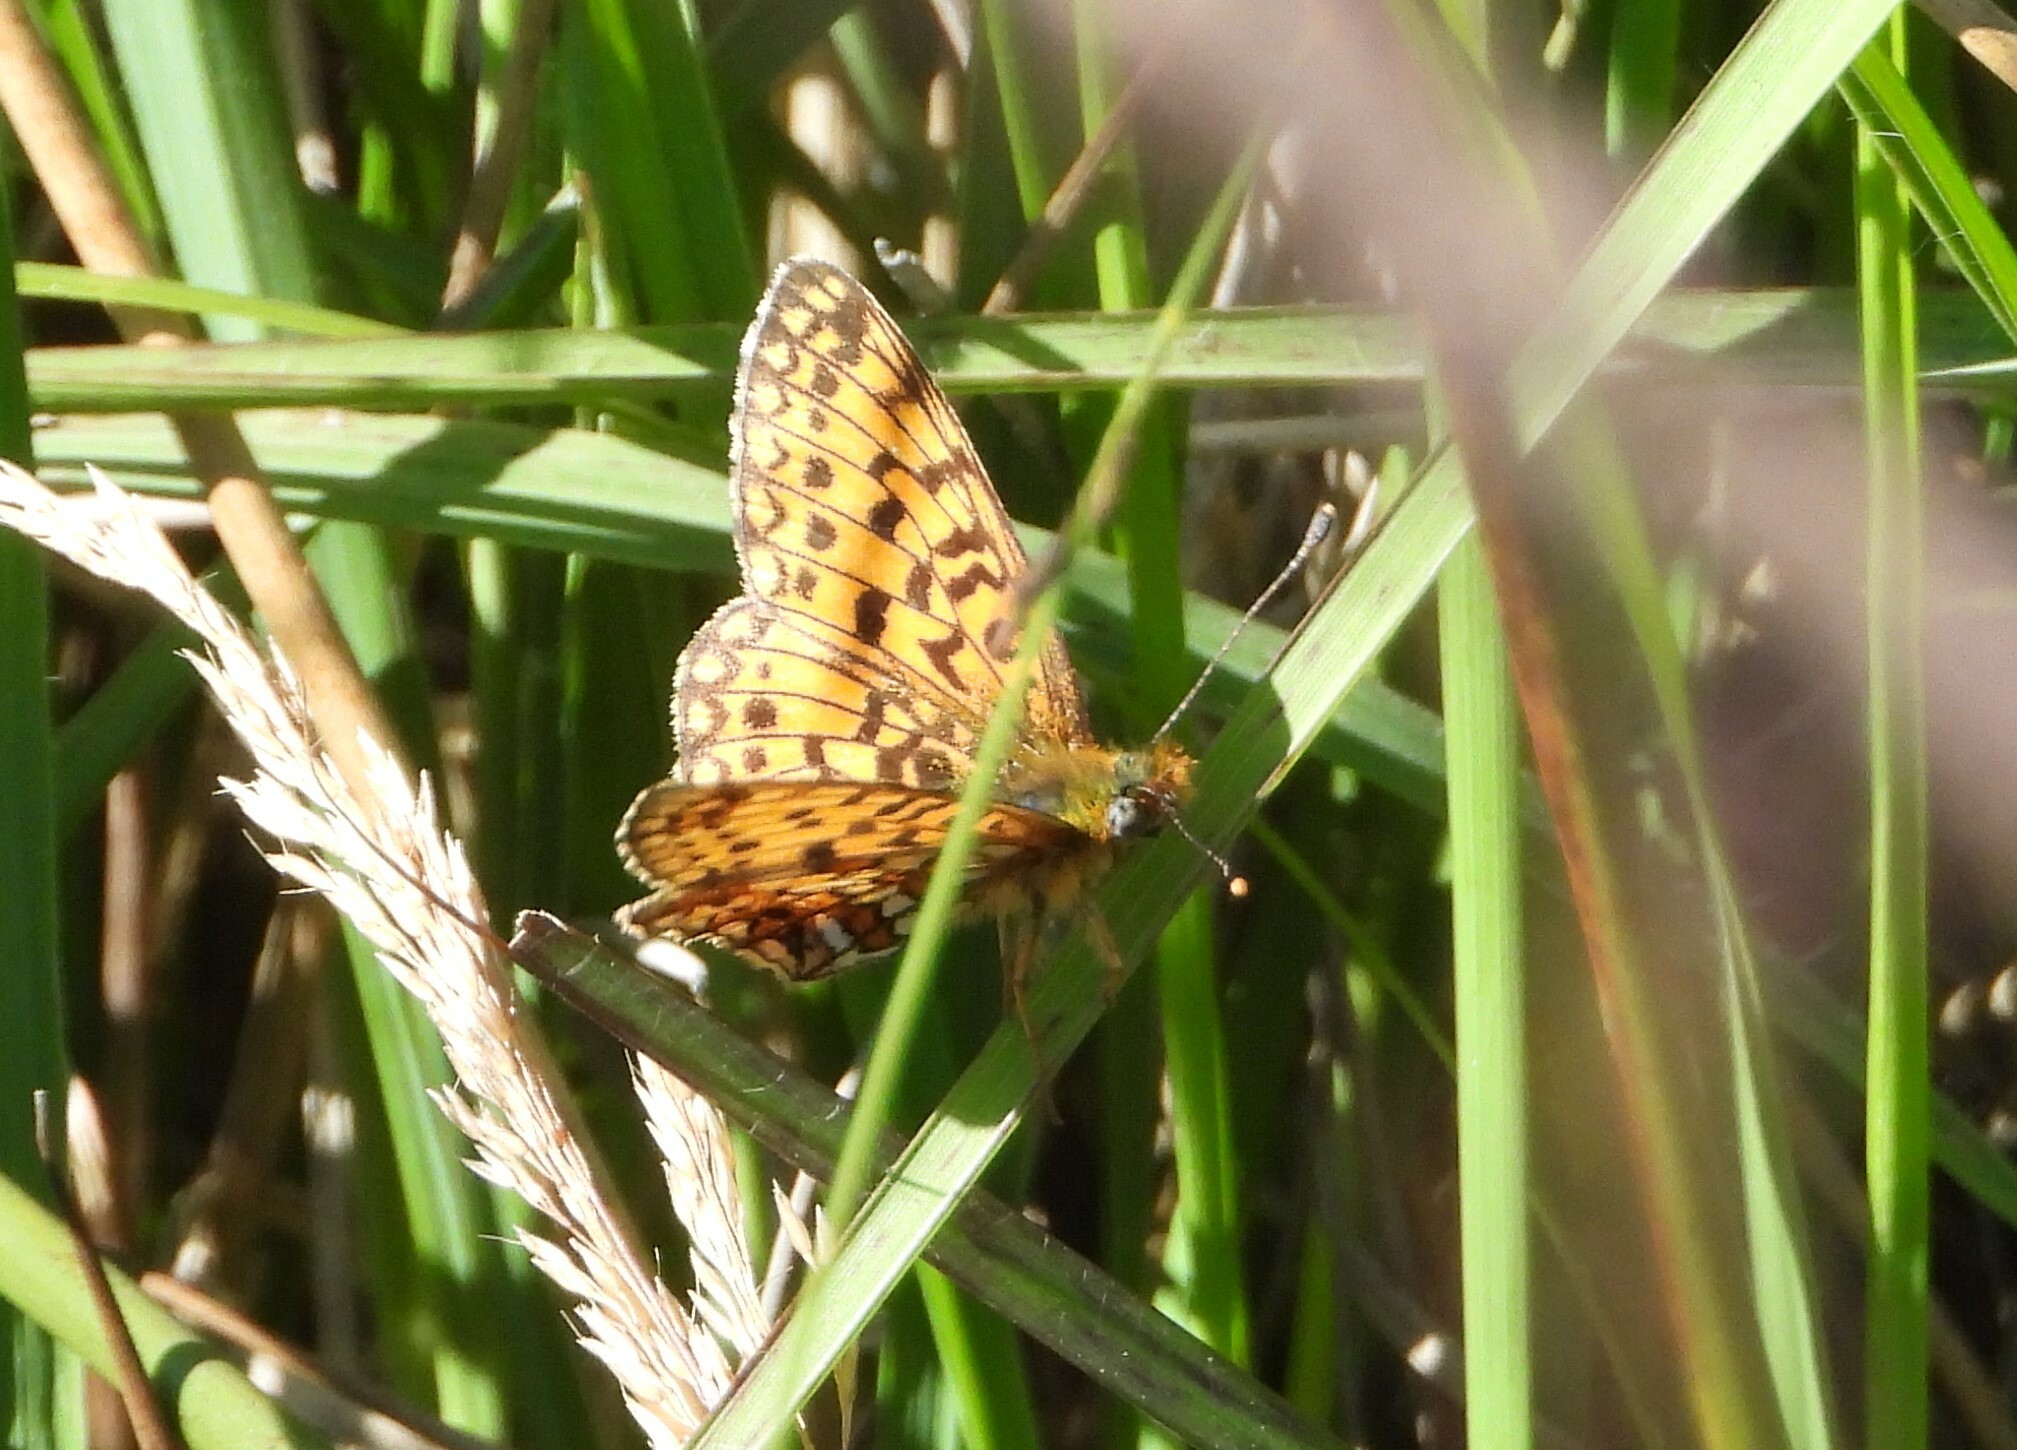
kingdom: Animalia
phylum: Arthropoda
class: Insecta
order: Lepidoptera
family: Nymphalidae
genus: Boloria
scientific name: Boloria selene
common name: Small pearl-bordered fritillary
